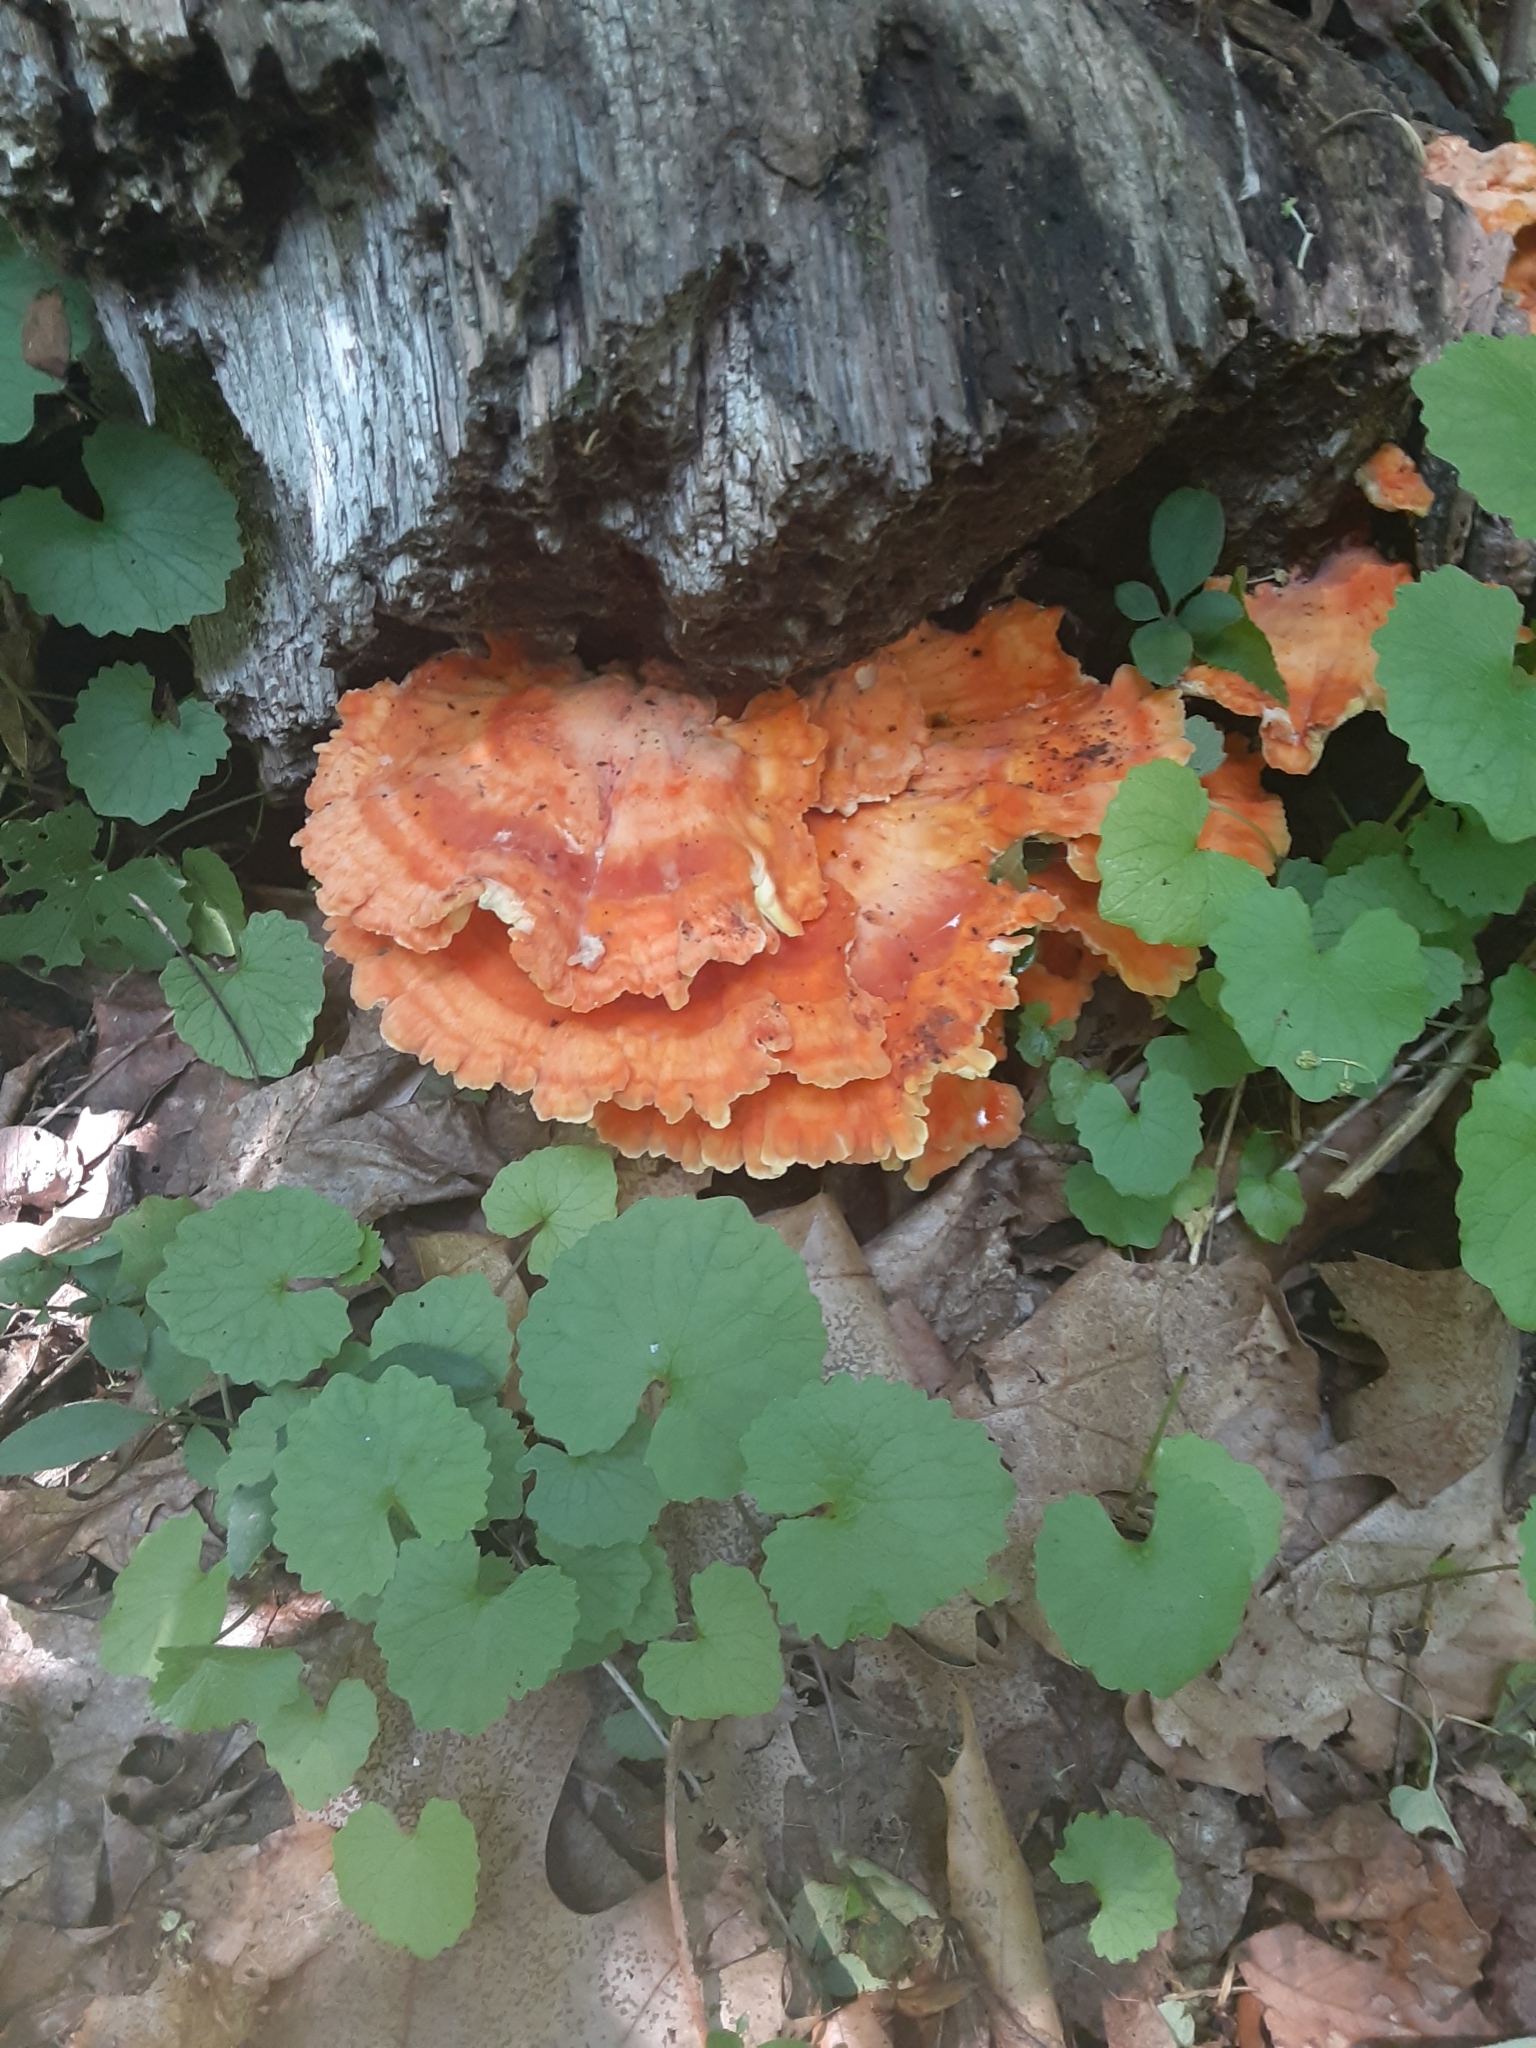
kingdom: Fungi
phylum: Basidiomycota
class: Agaricomycetes
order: Polyporales
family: Laetiporaceae
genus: Laetiporus
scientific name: Laetiporus sulphureus
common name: Chicken of the woods
